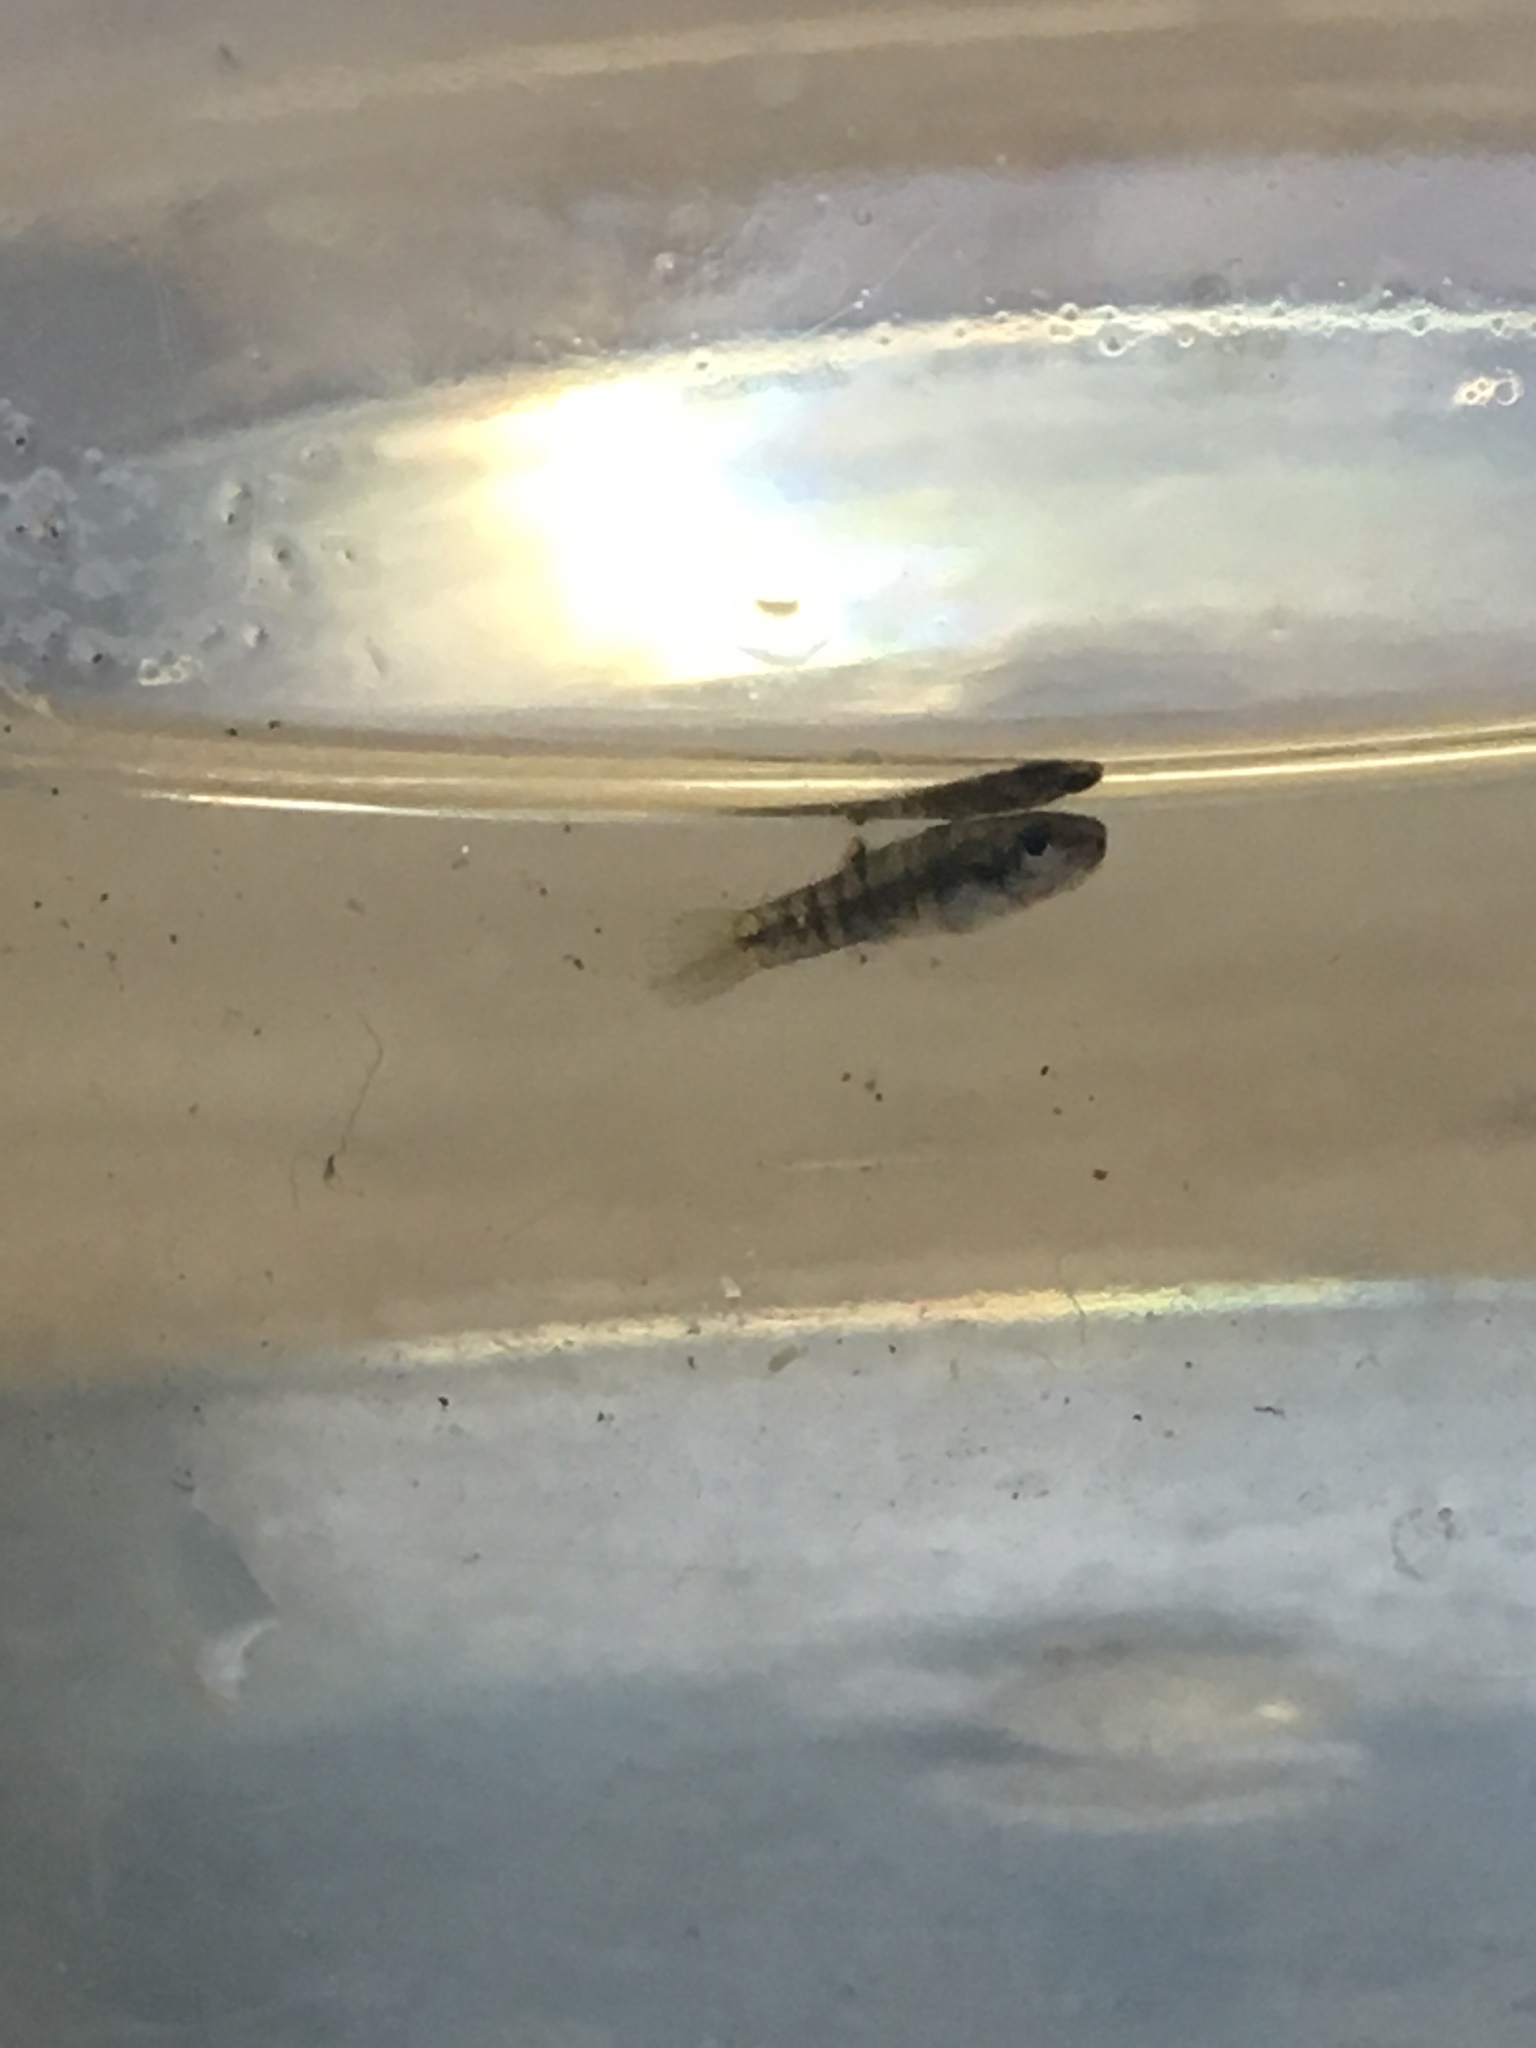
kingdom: Animalia
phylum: Chordata
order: Cyprinodontiformes
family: Poeciliidae
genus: Heterandria
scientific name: Heterandria formosa
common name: Least killifish
